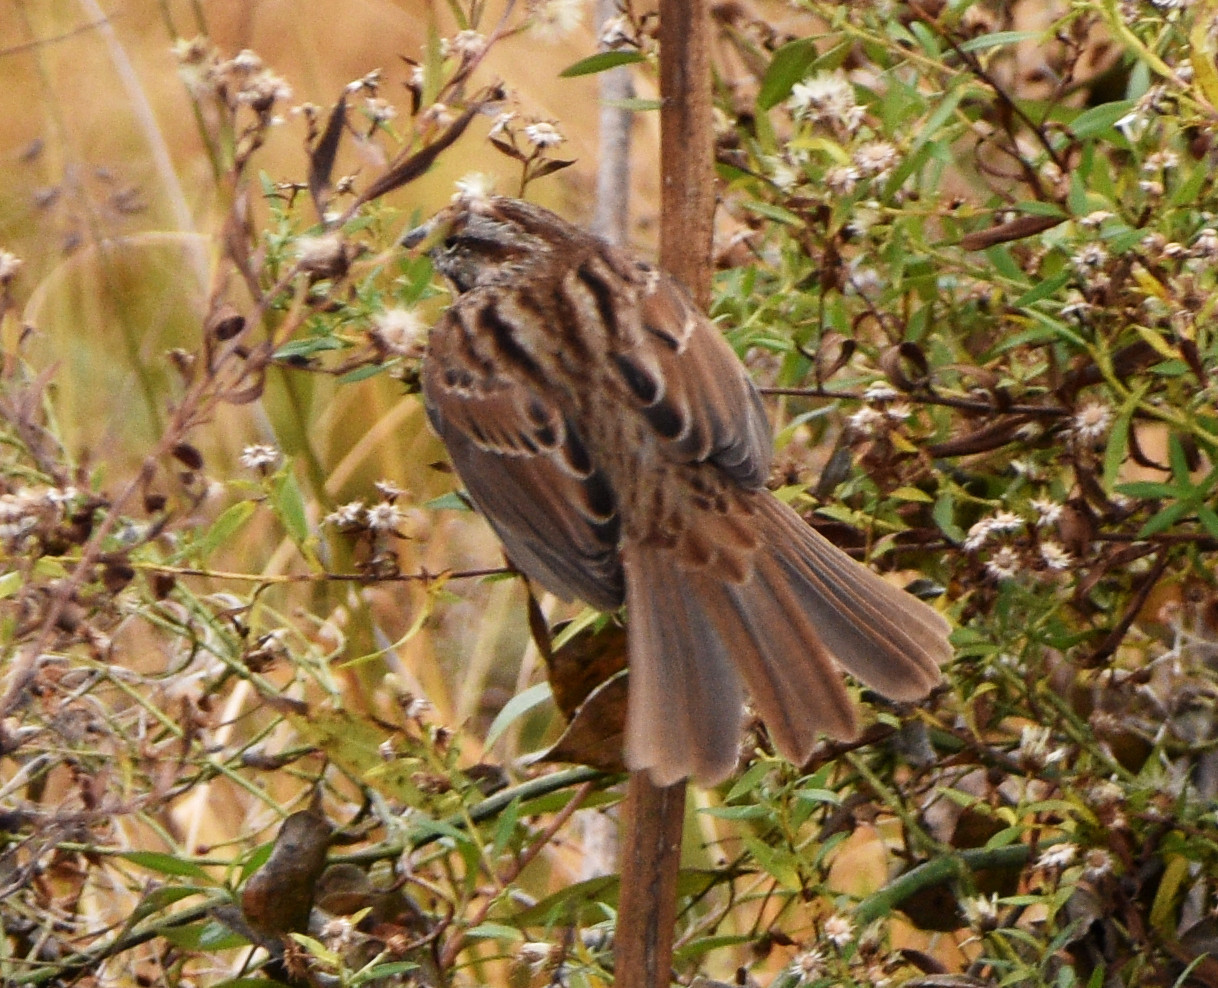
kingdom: Animalia
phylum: Chordata
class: Aves
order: Passeriformes
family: Passerellidae
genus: Melospiza
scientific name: Melospiza melodia
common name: Song sparrow
